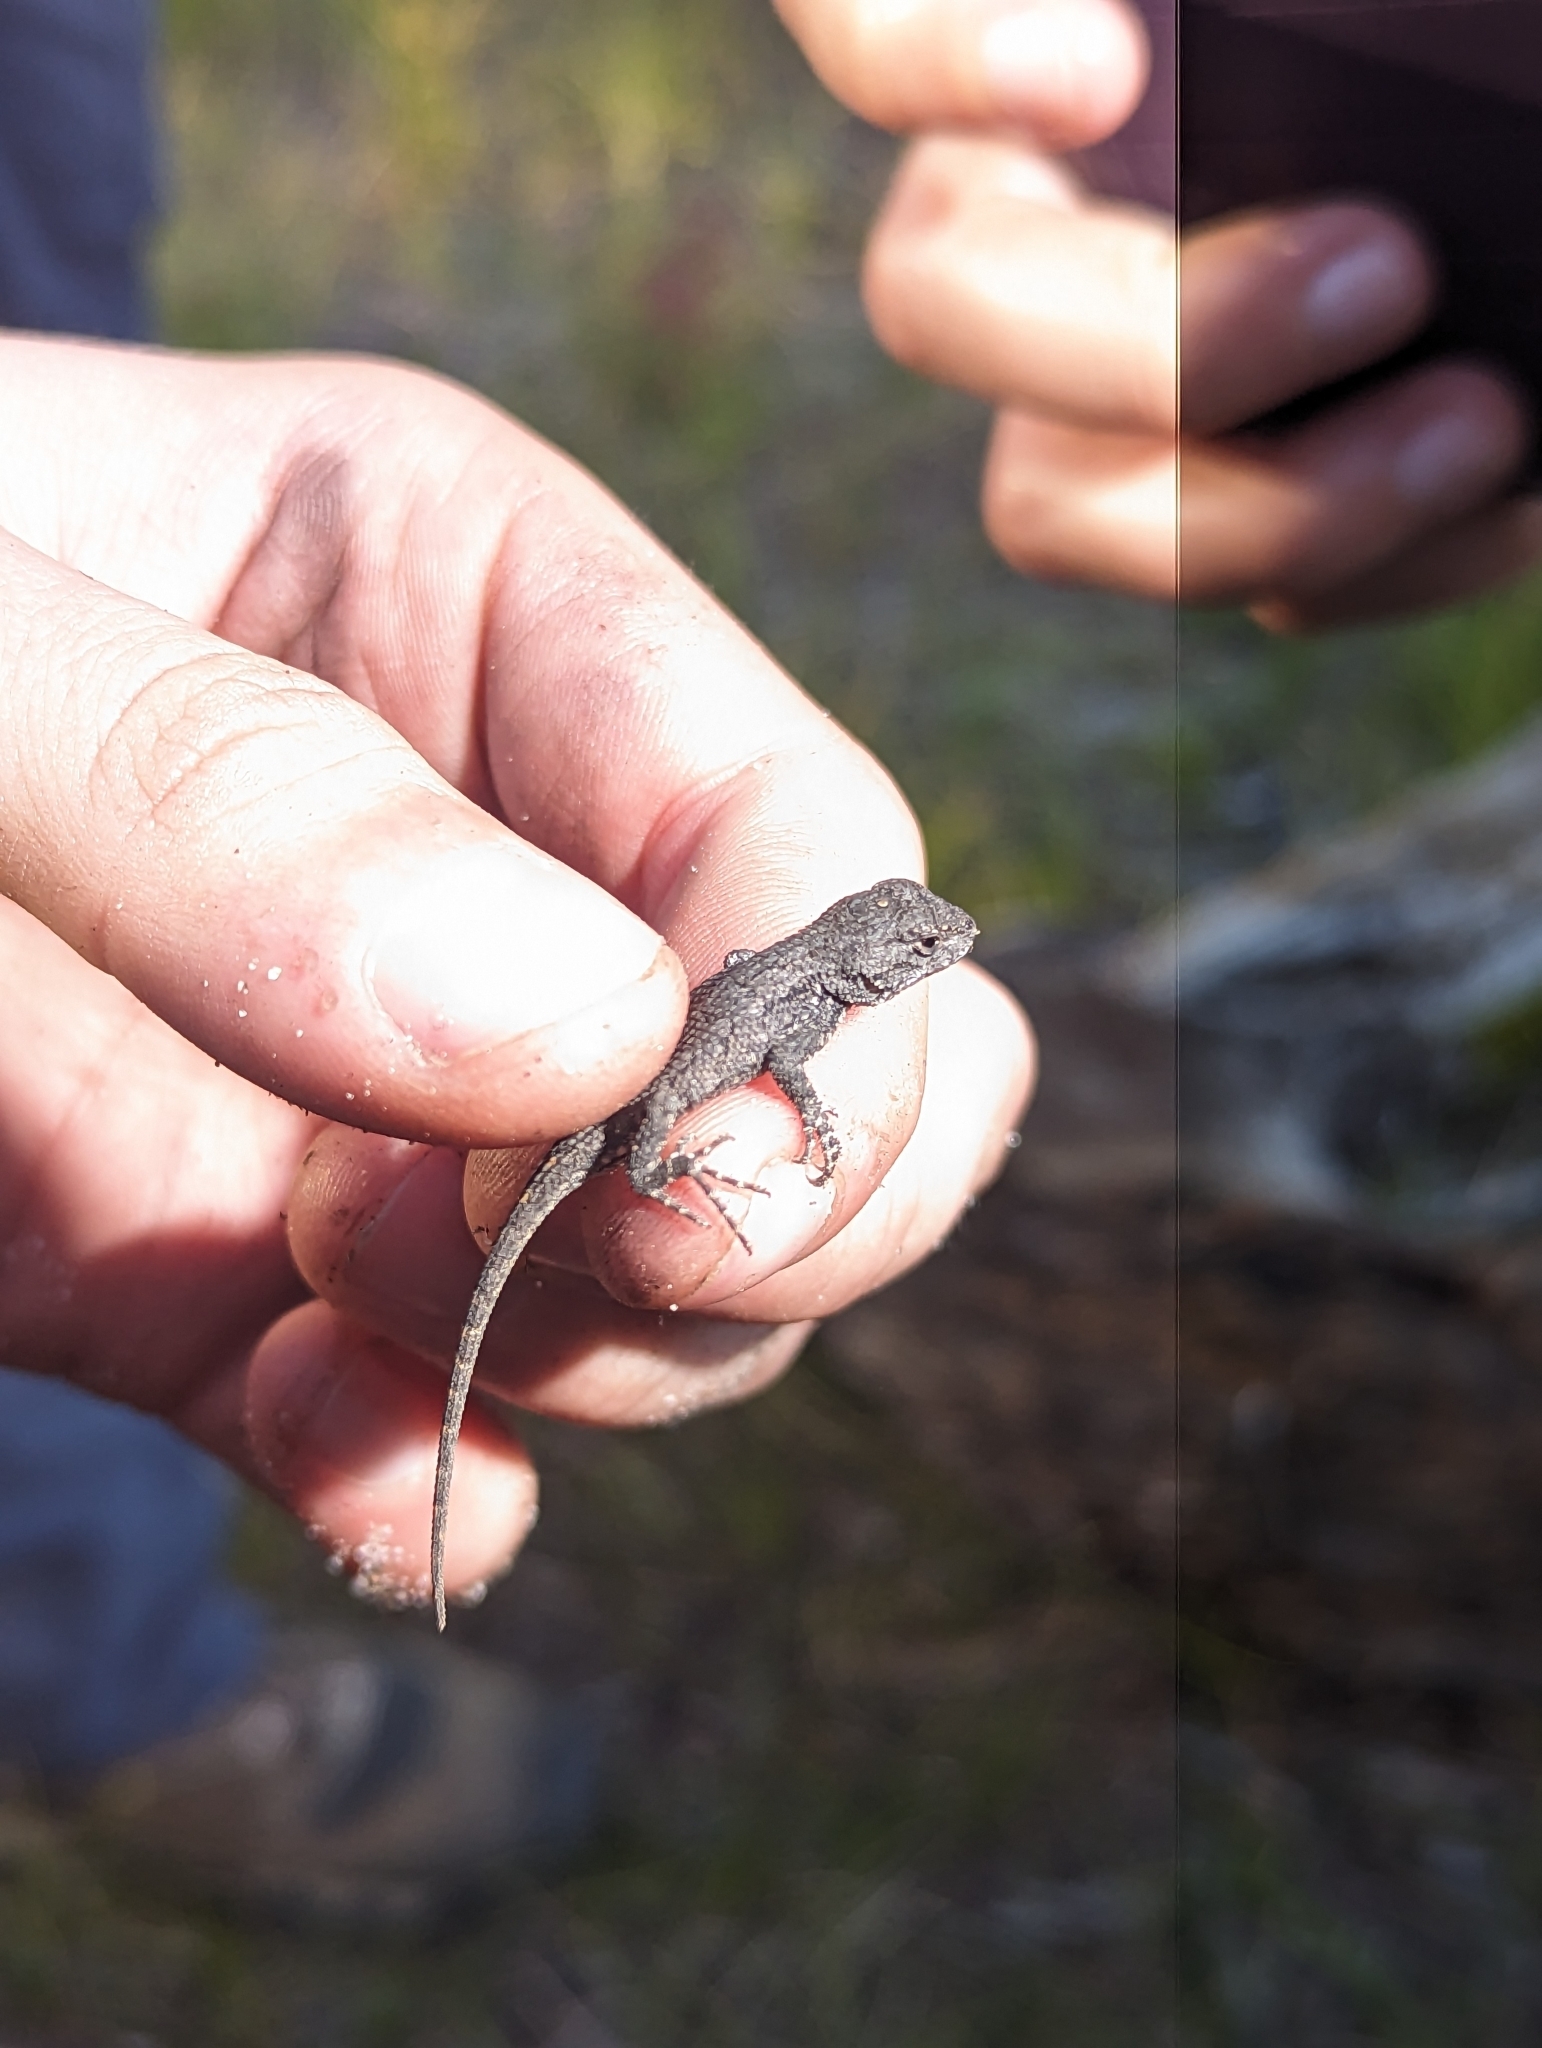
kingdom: Animalia
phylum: Chordata
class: Squamata
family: Phrynosomatidae
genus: Sceloporus
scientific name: Sceloporus undulatus
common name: Eastern fence lizard
